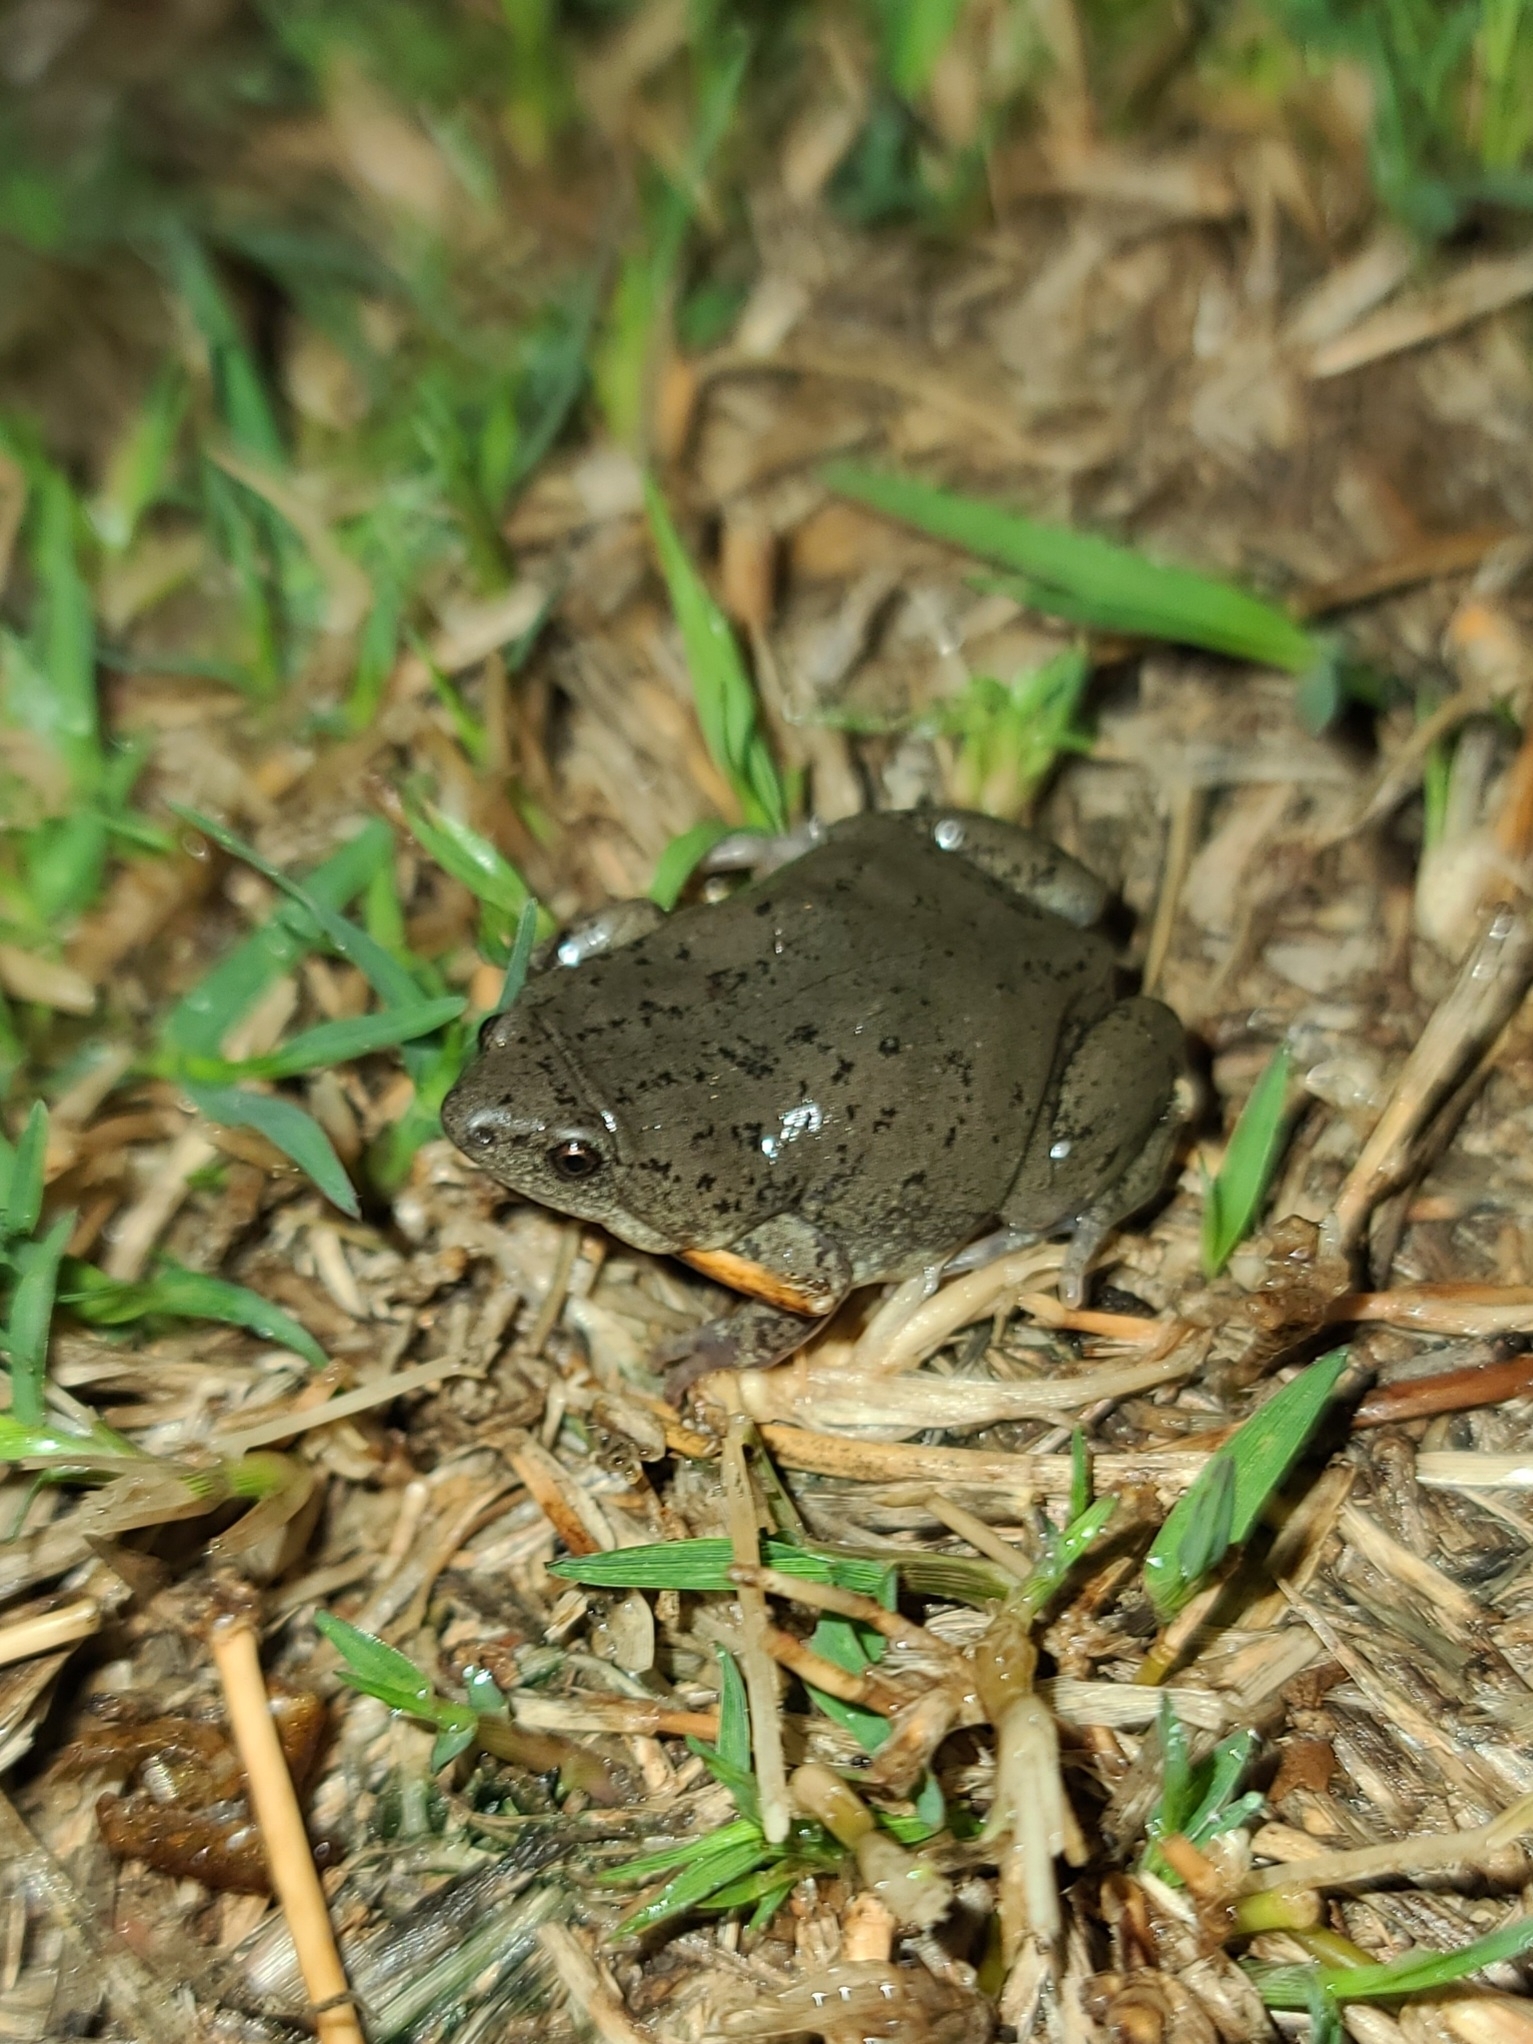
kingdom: Animalia
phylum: Chordata
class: Amphibia
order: Anura
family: Microhylidae
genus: Gastrophryne
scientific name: Gastrophryne olivacea
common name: Great plains narrow-mouthed toad
